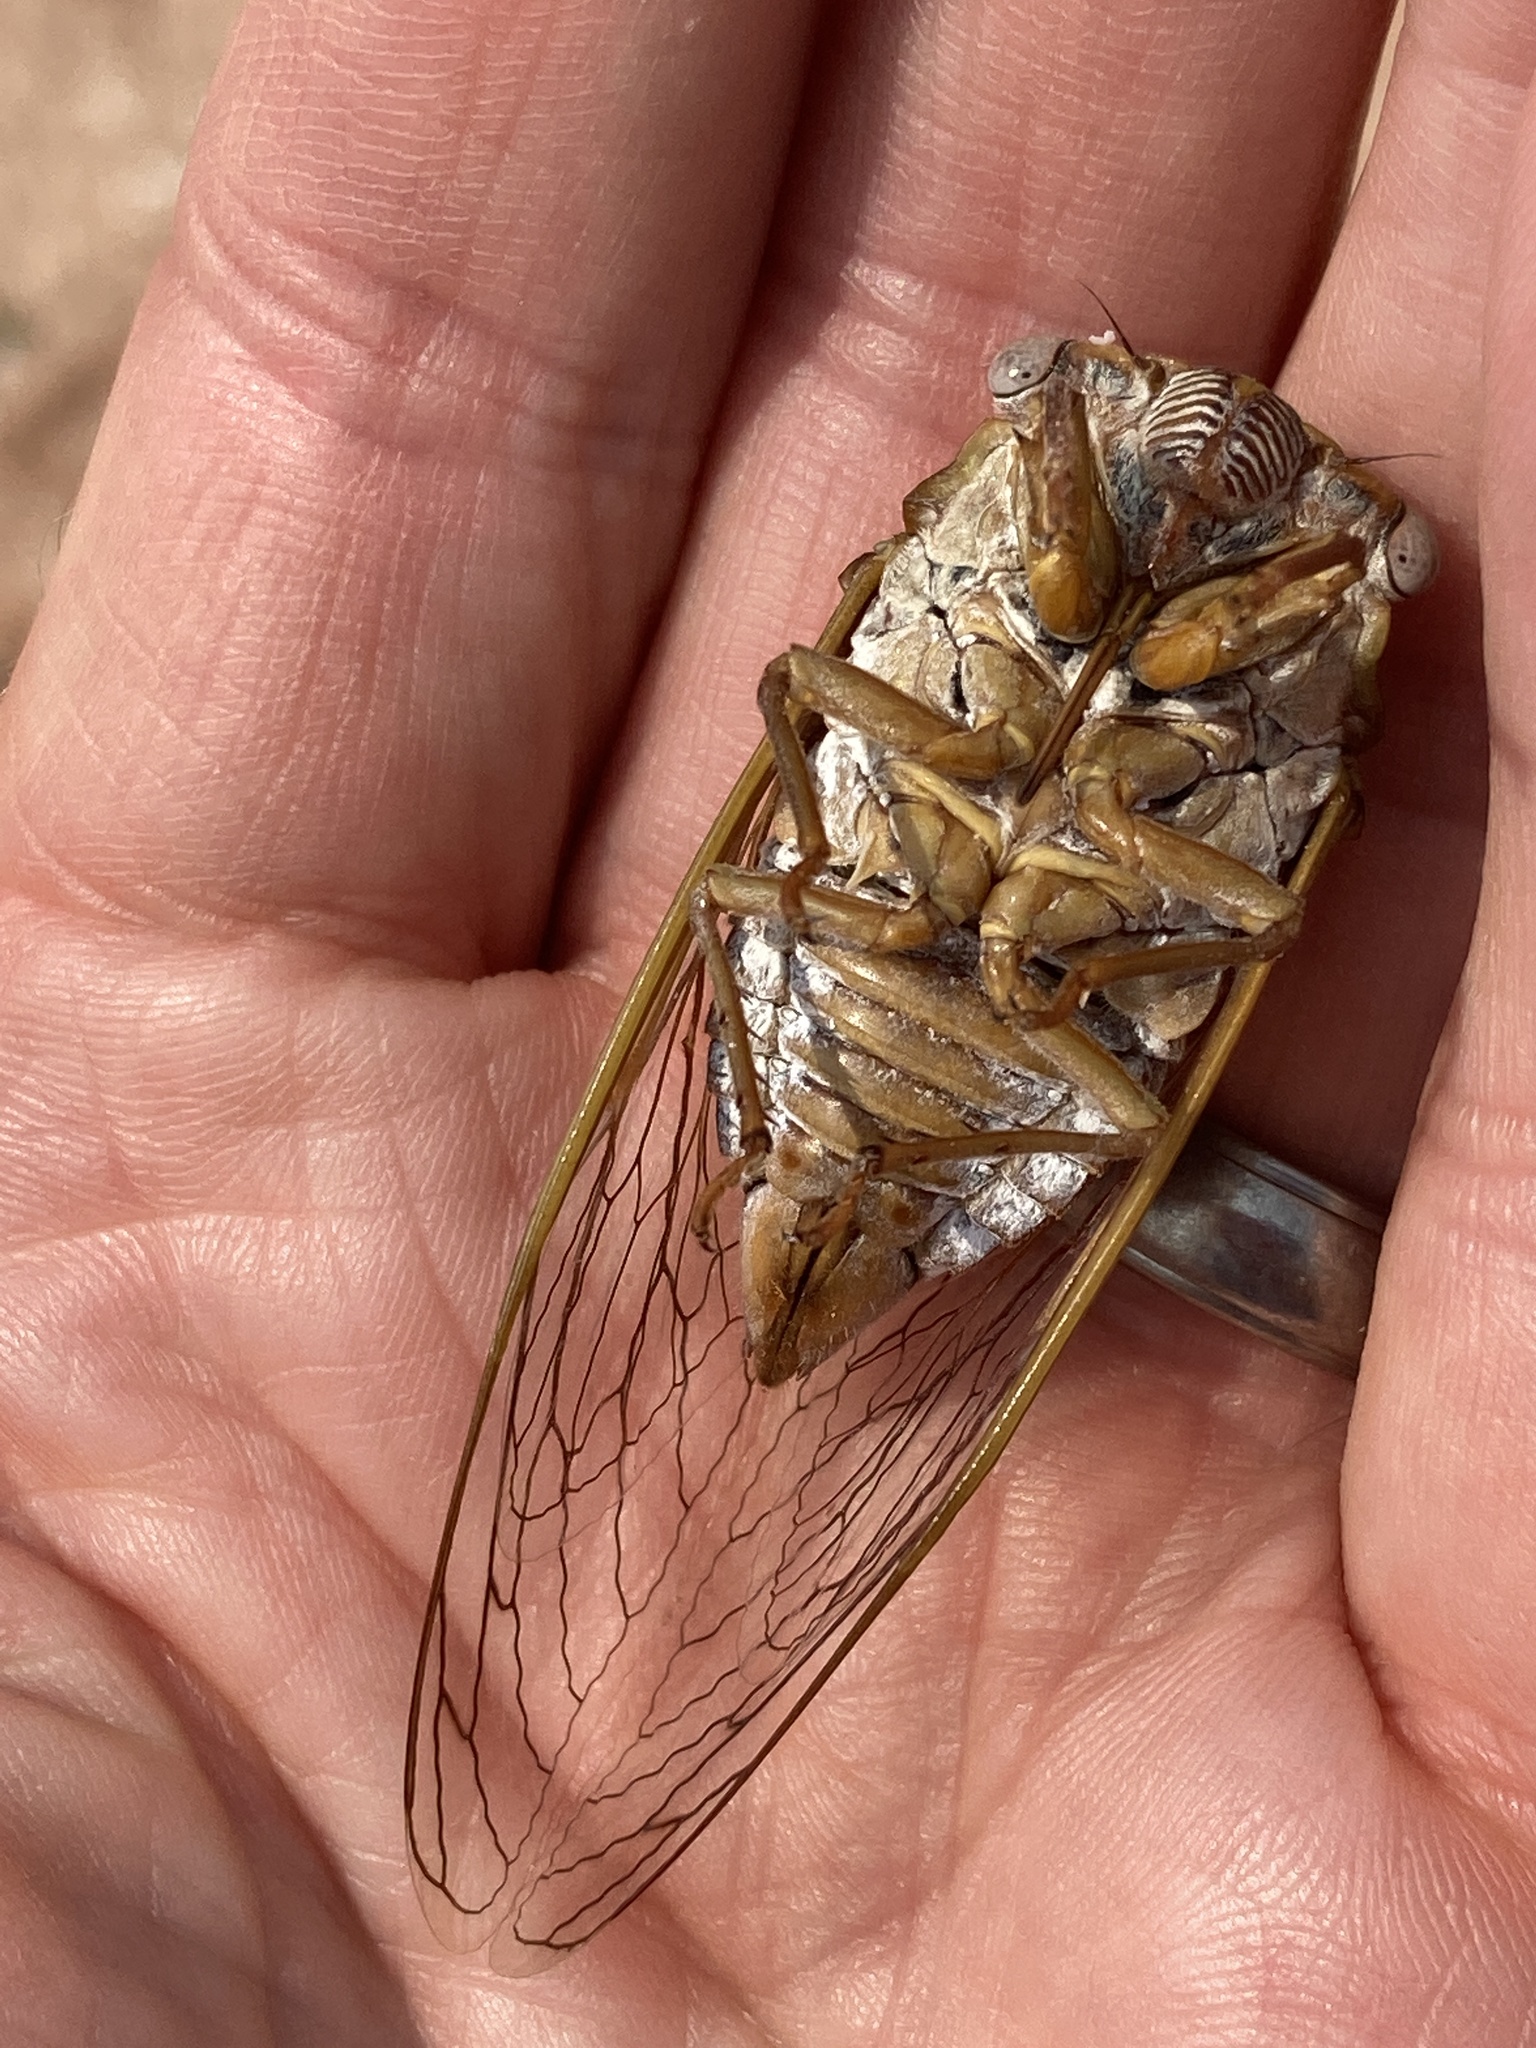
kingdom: Animalia
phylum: Arthropoda
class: Insecta
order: Hemiptera
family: Cicadidae
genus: Megatibicen
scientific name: Megatibicen dealbatus
